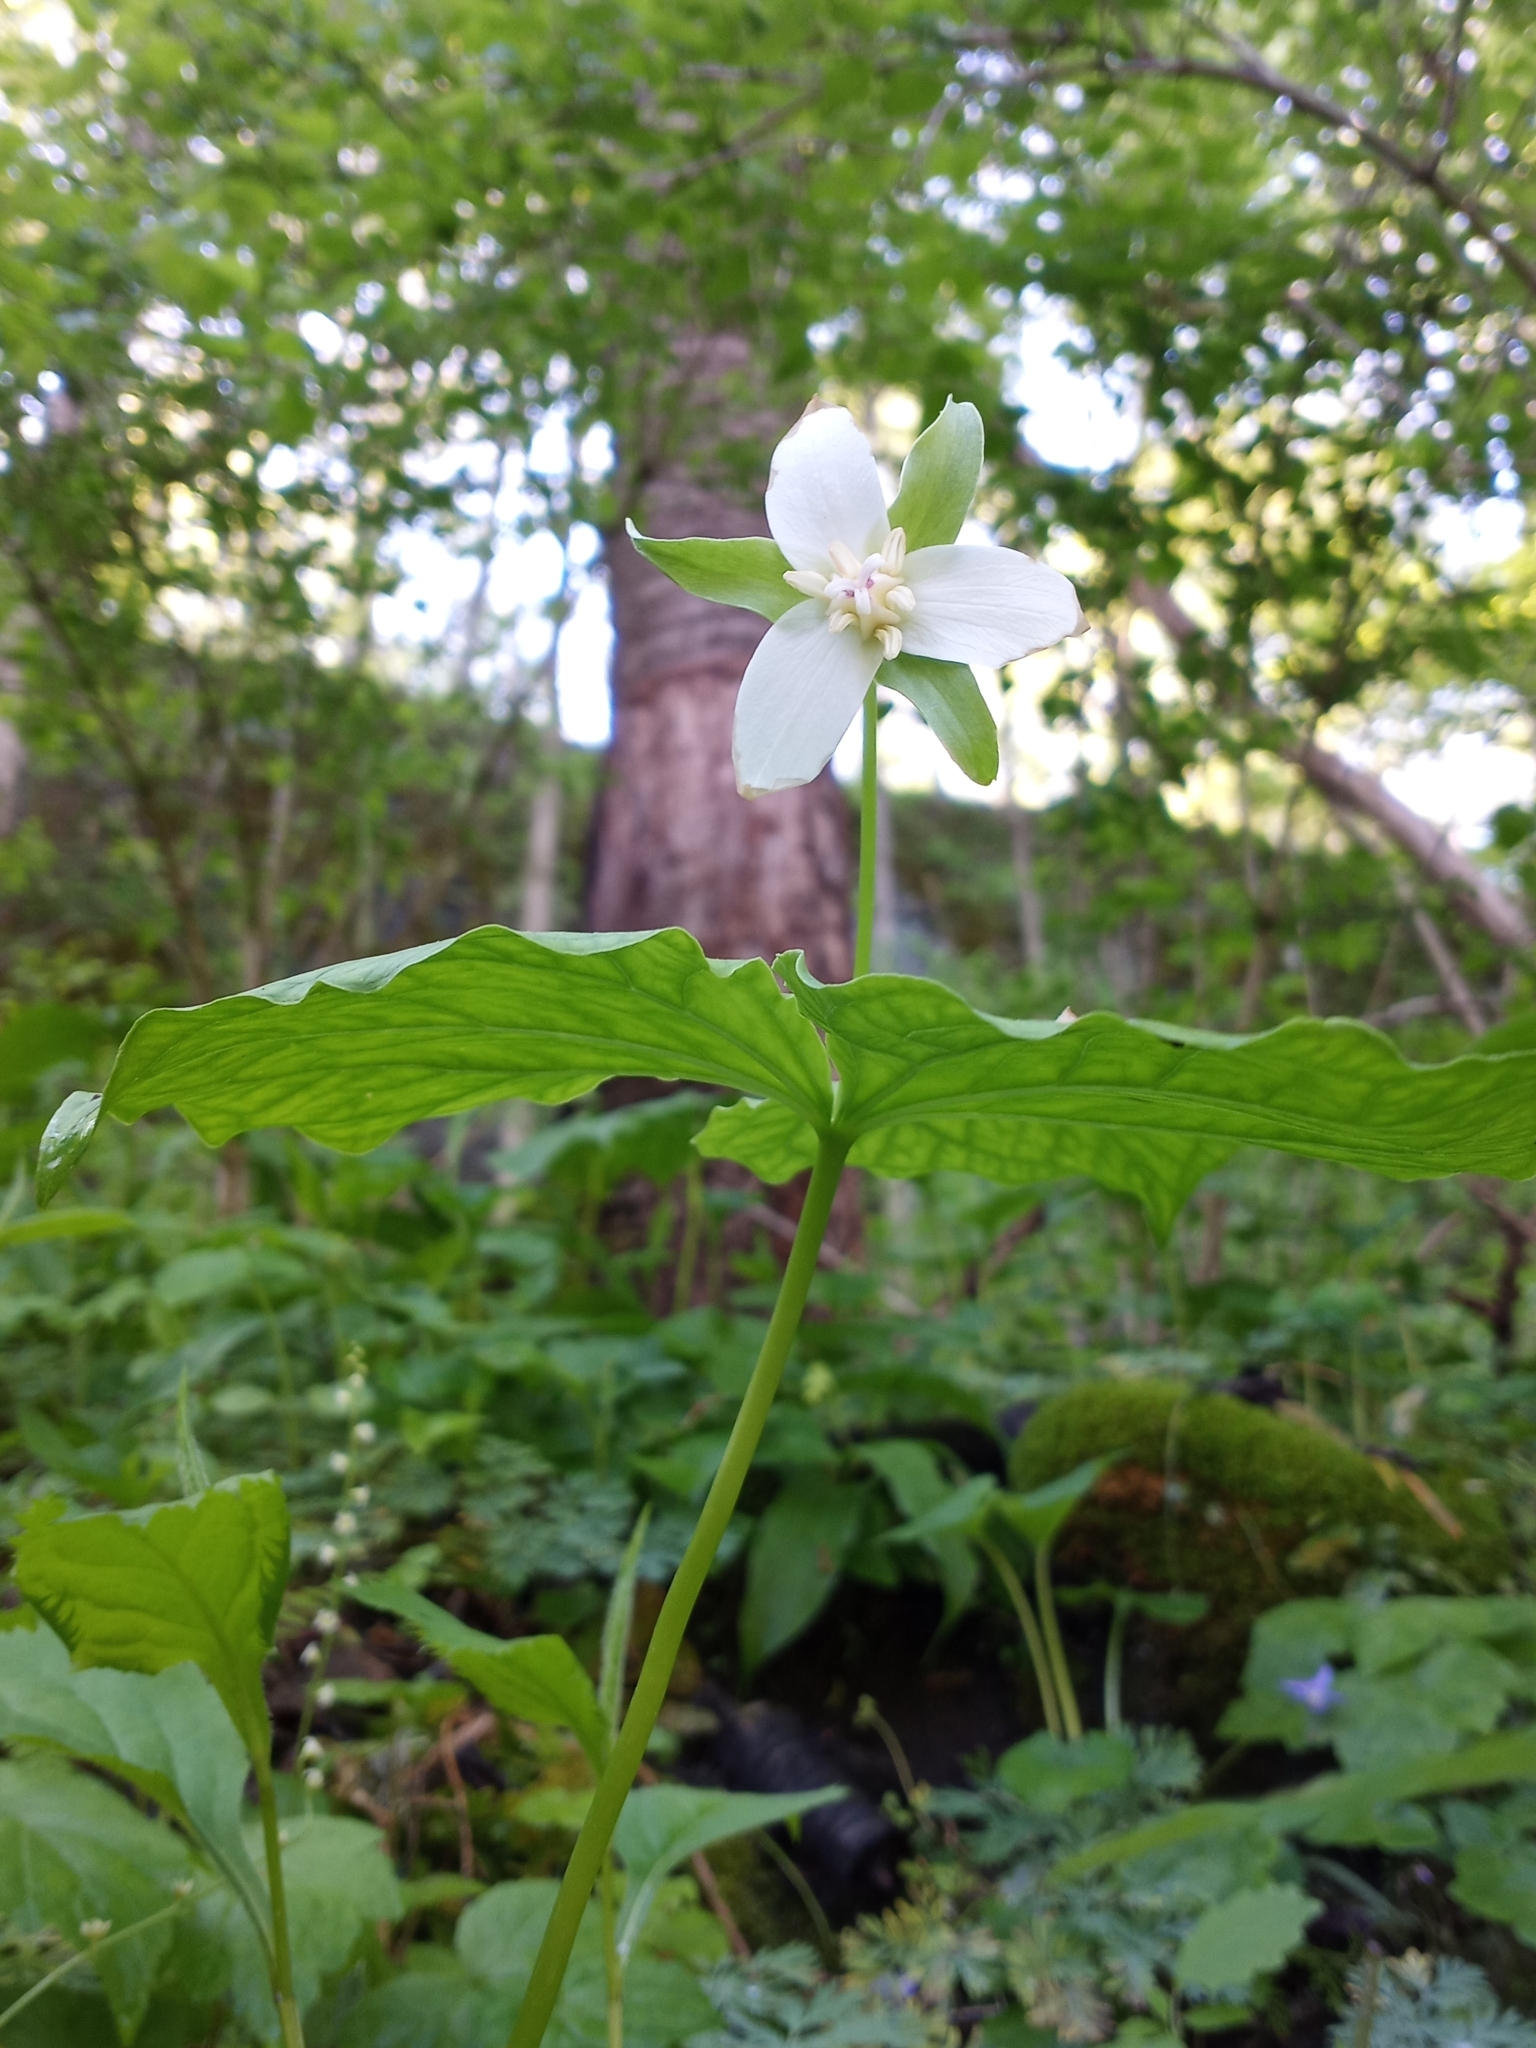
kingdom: Plantae
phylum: Tracheophyta
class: Liliopsida
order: Liliales
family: Melanthiaceae
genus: Trillium
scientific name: Trillium flexipes
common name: Drooping trillium
